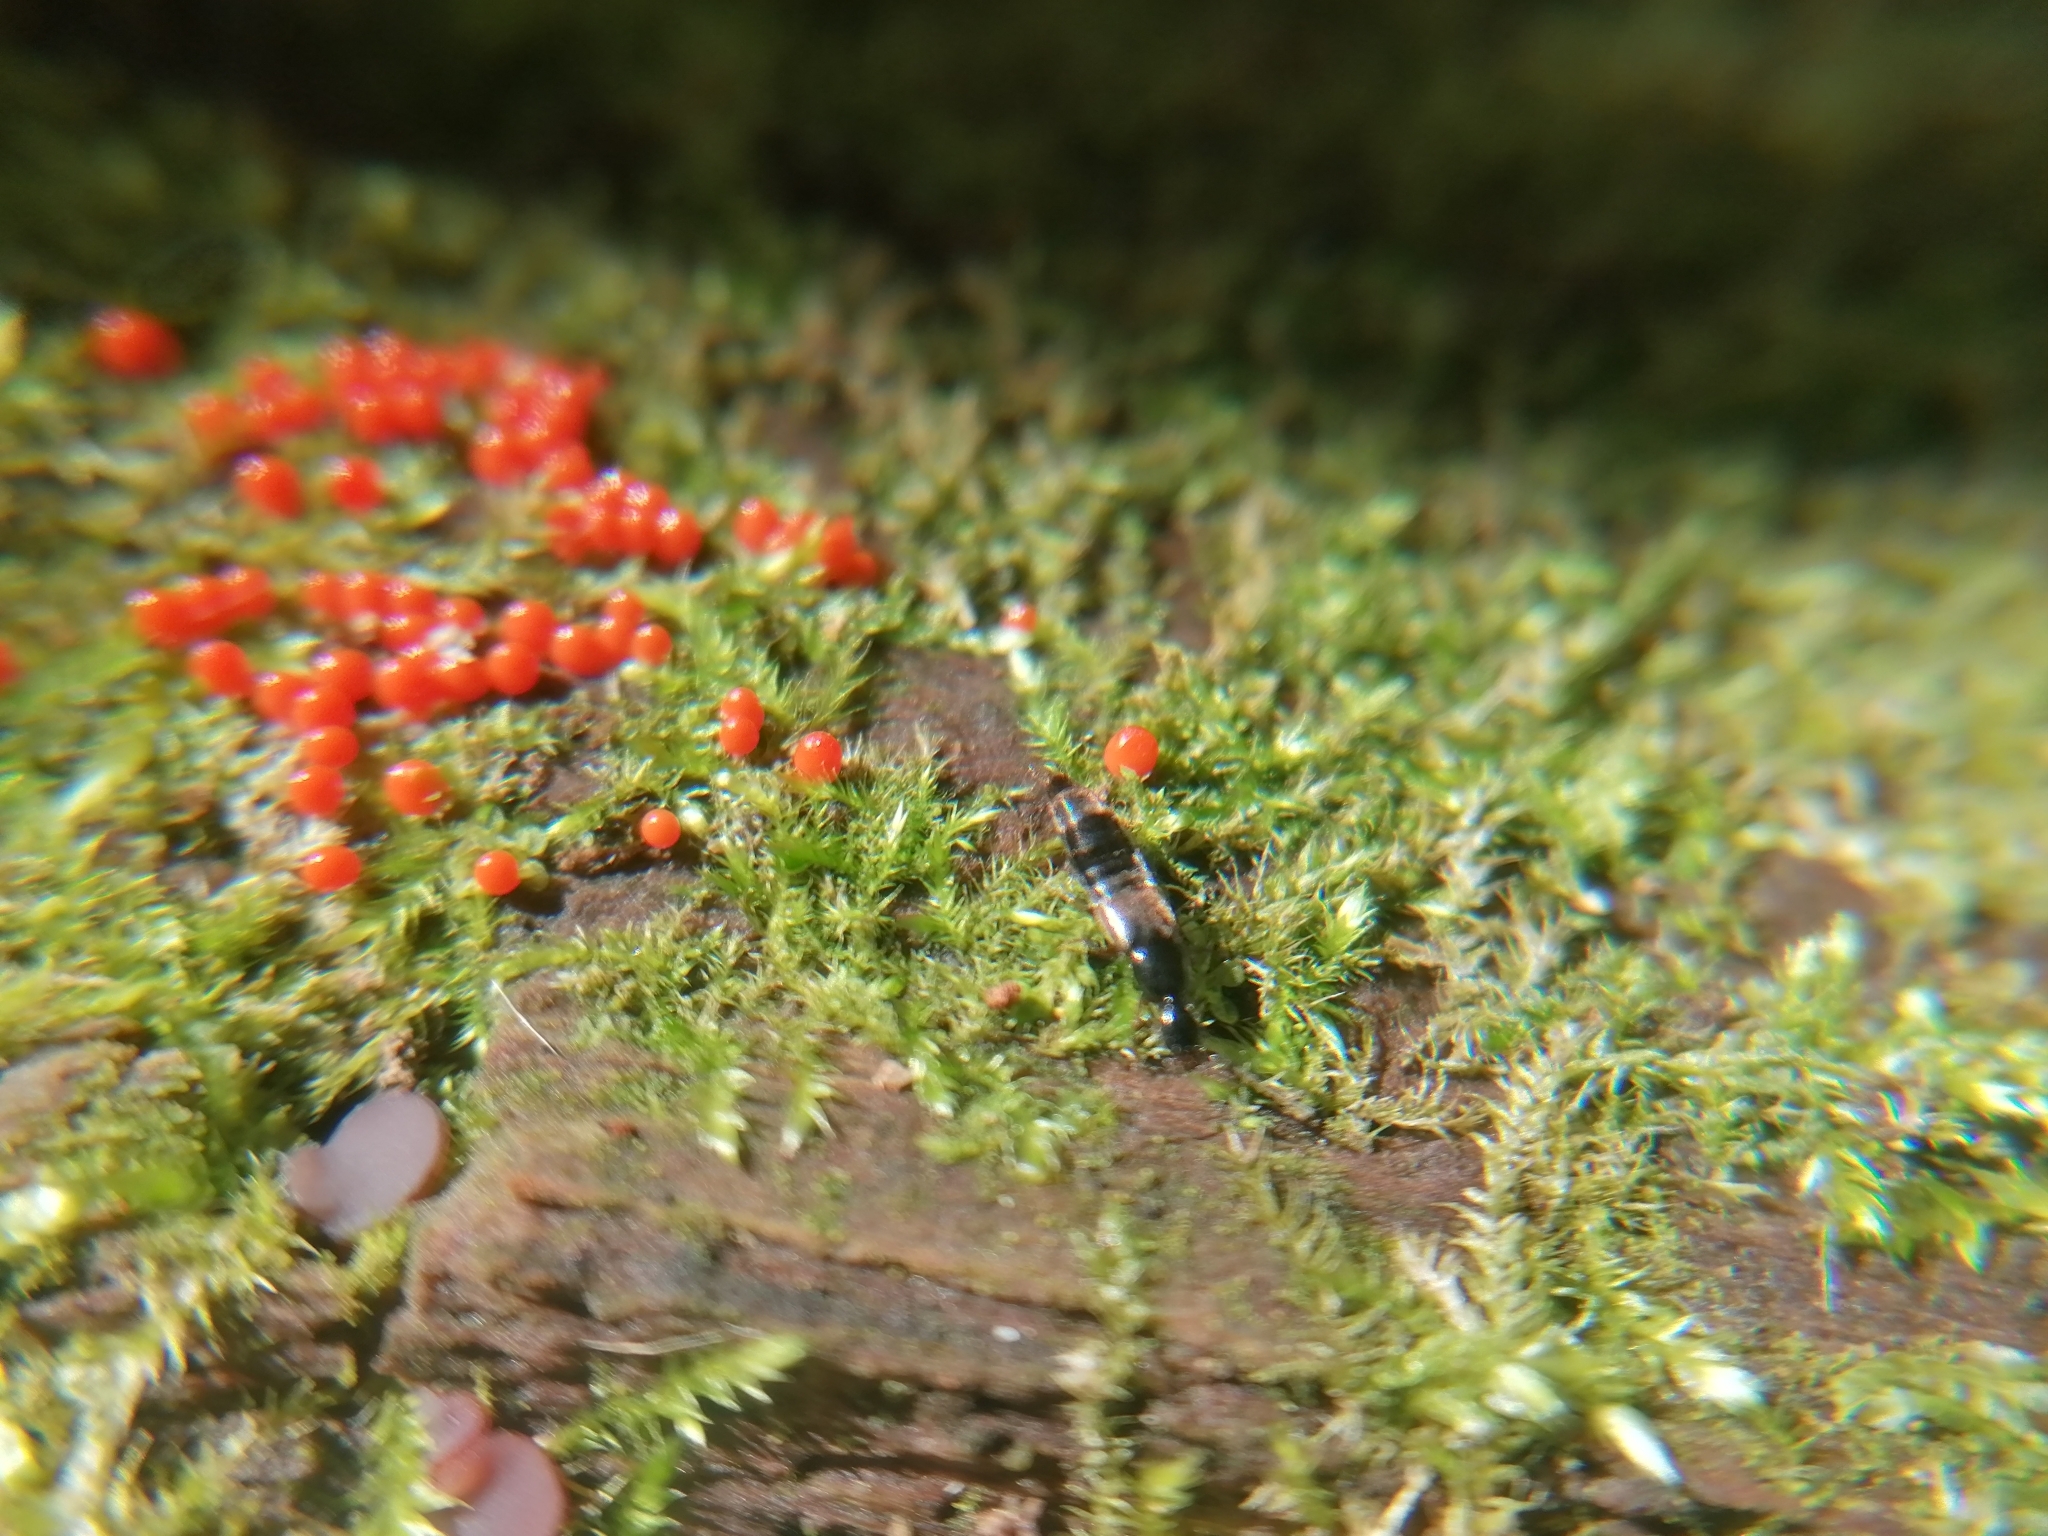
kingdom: Protozoa
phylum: Mycetozoa
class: Myxomycetes
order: Trichiales
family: Arcyriaceae
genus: Hemitrichia
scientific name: Hemitrichia decipiens
